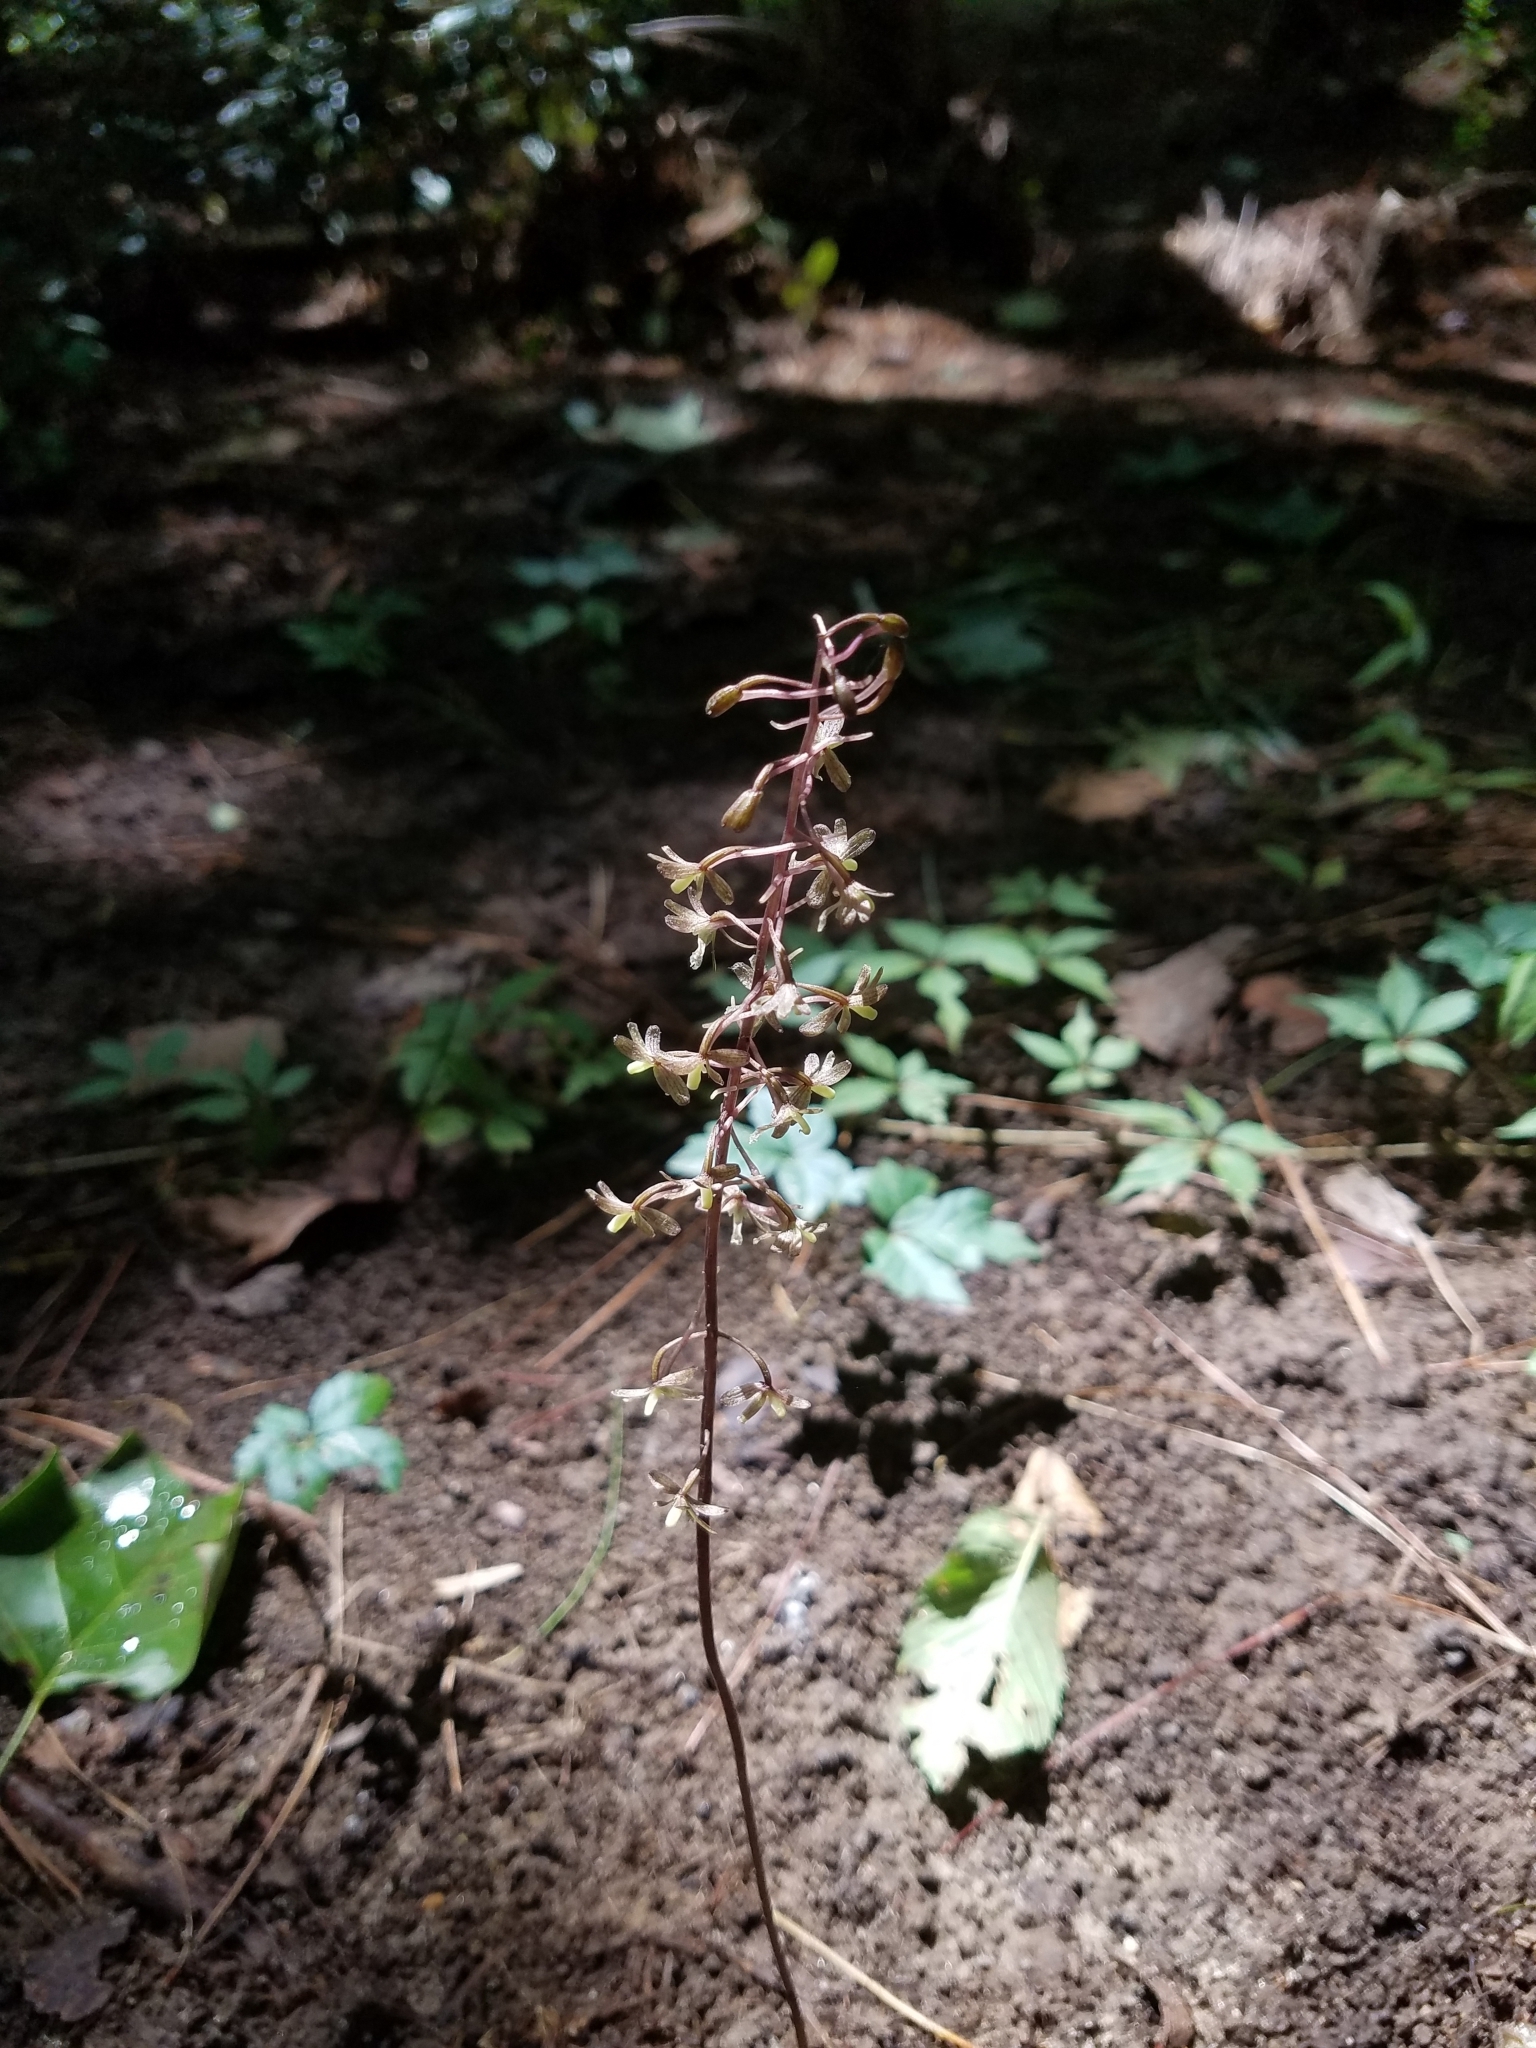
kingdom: Plantae
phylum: Tracheophyta
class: Liliopsida
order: Asparagales
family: Orchidaceae
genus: Tipularia
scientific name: Tipularia discolor
